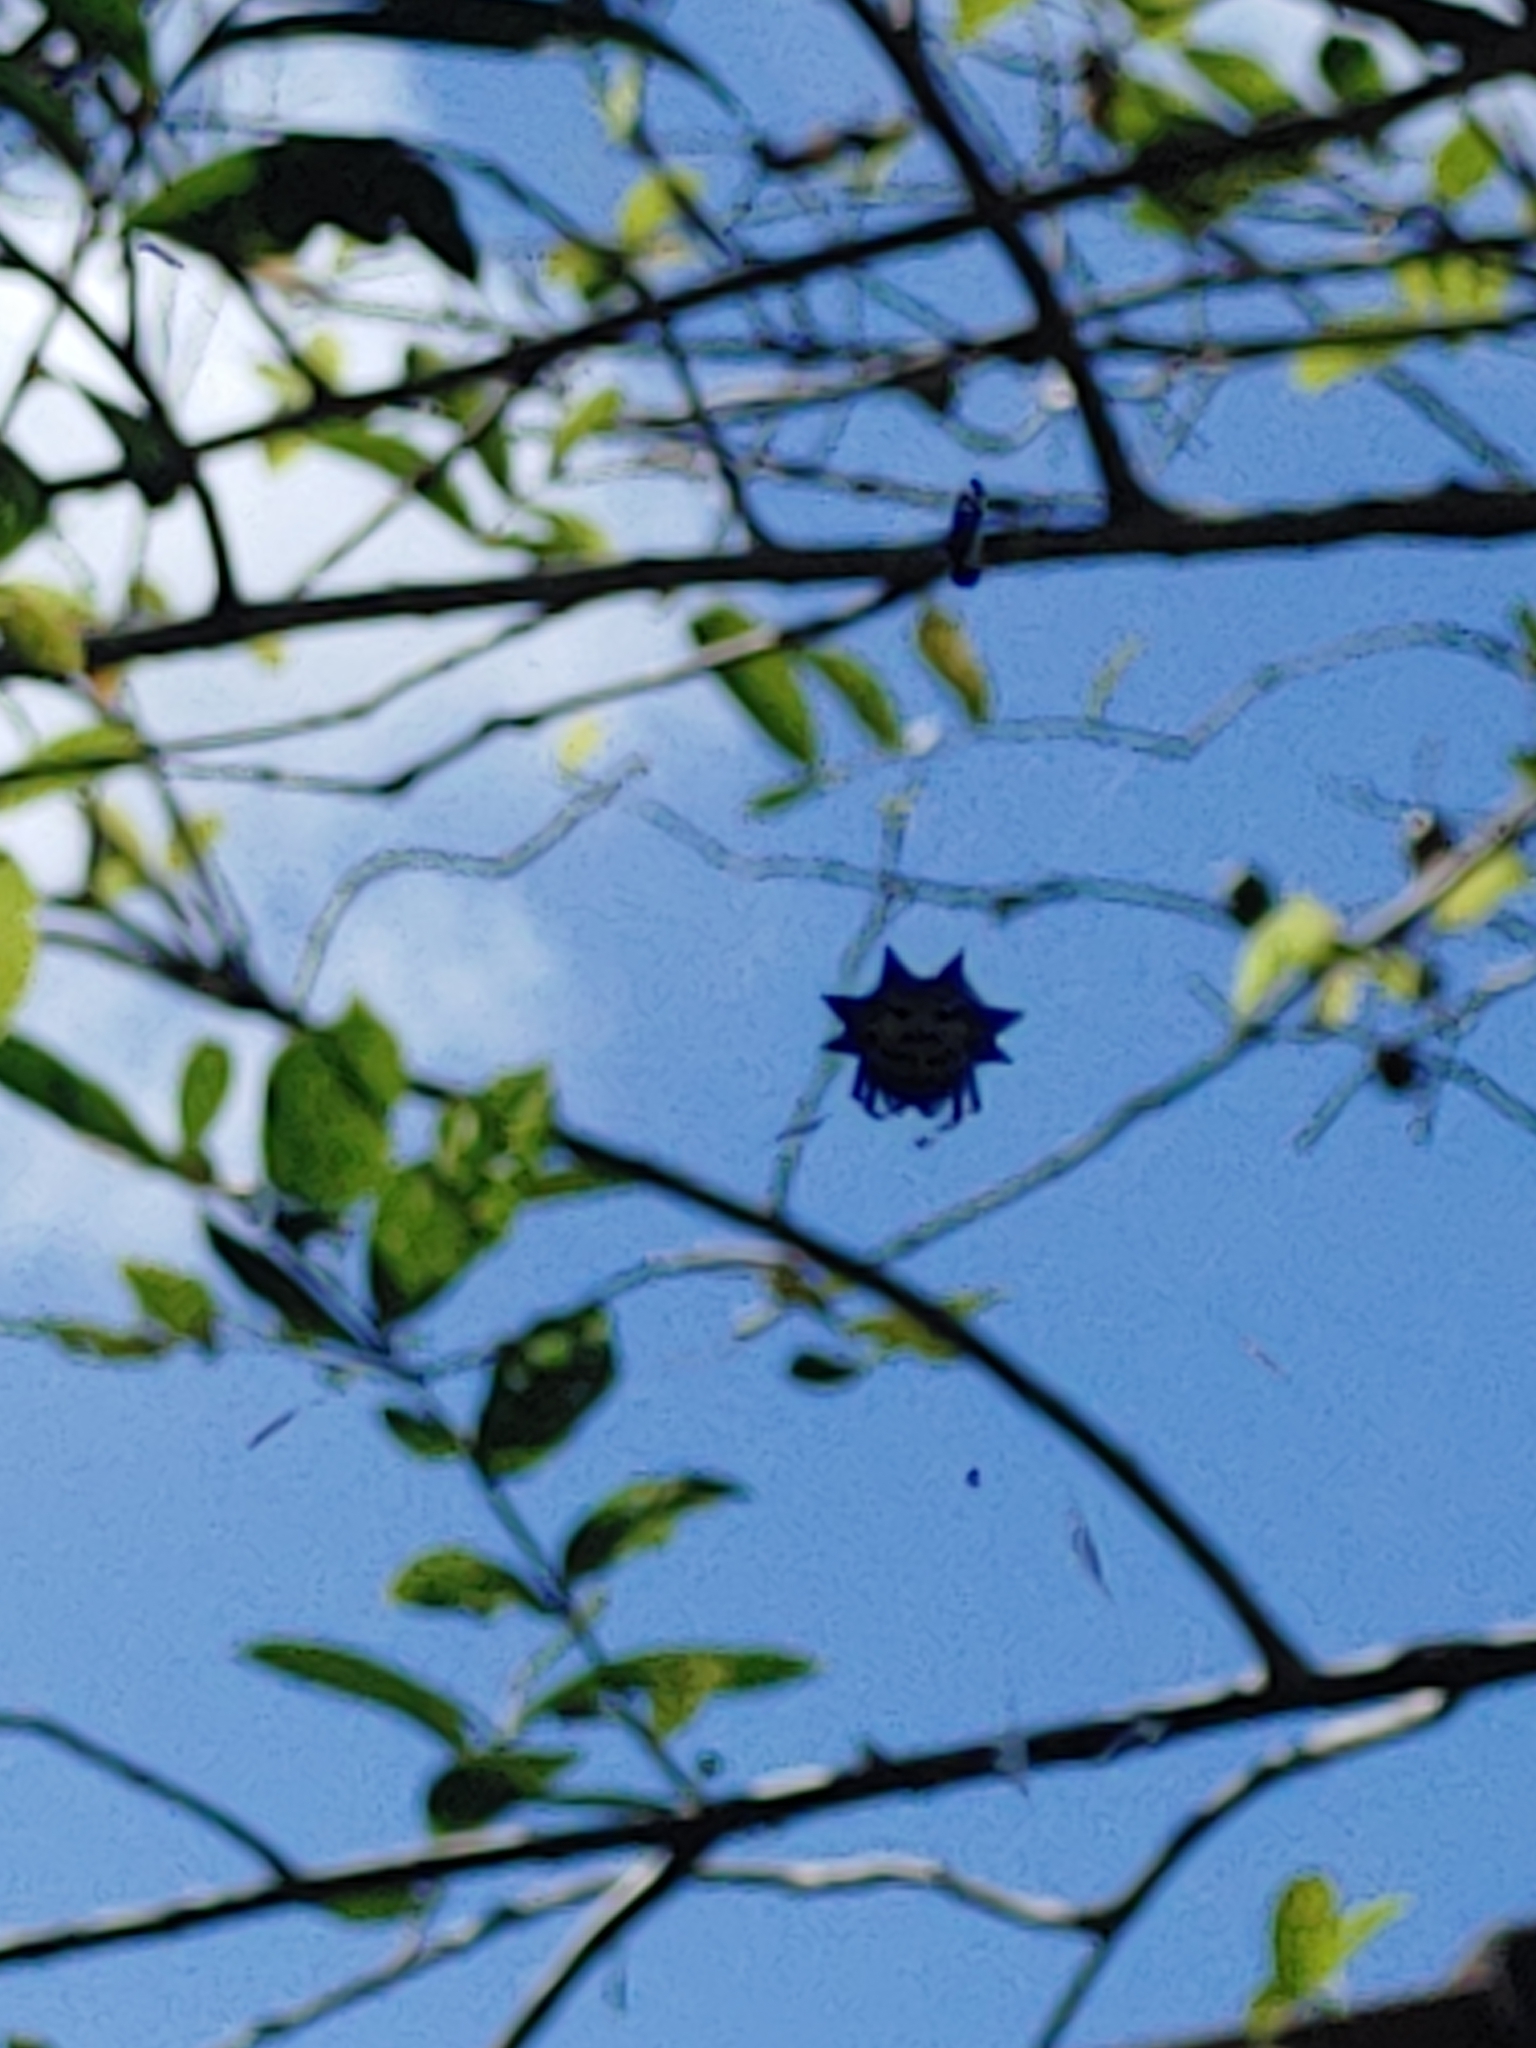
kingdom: Animalia
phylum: Arthropoda
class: Arachnida
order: Araneae
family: Araneidae
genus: Gasteracantha
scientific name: Gasteracantha cancriformis
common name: Orb weavers
